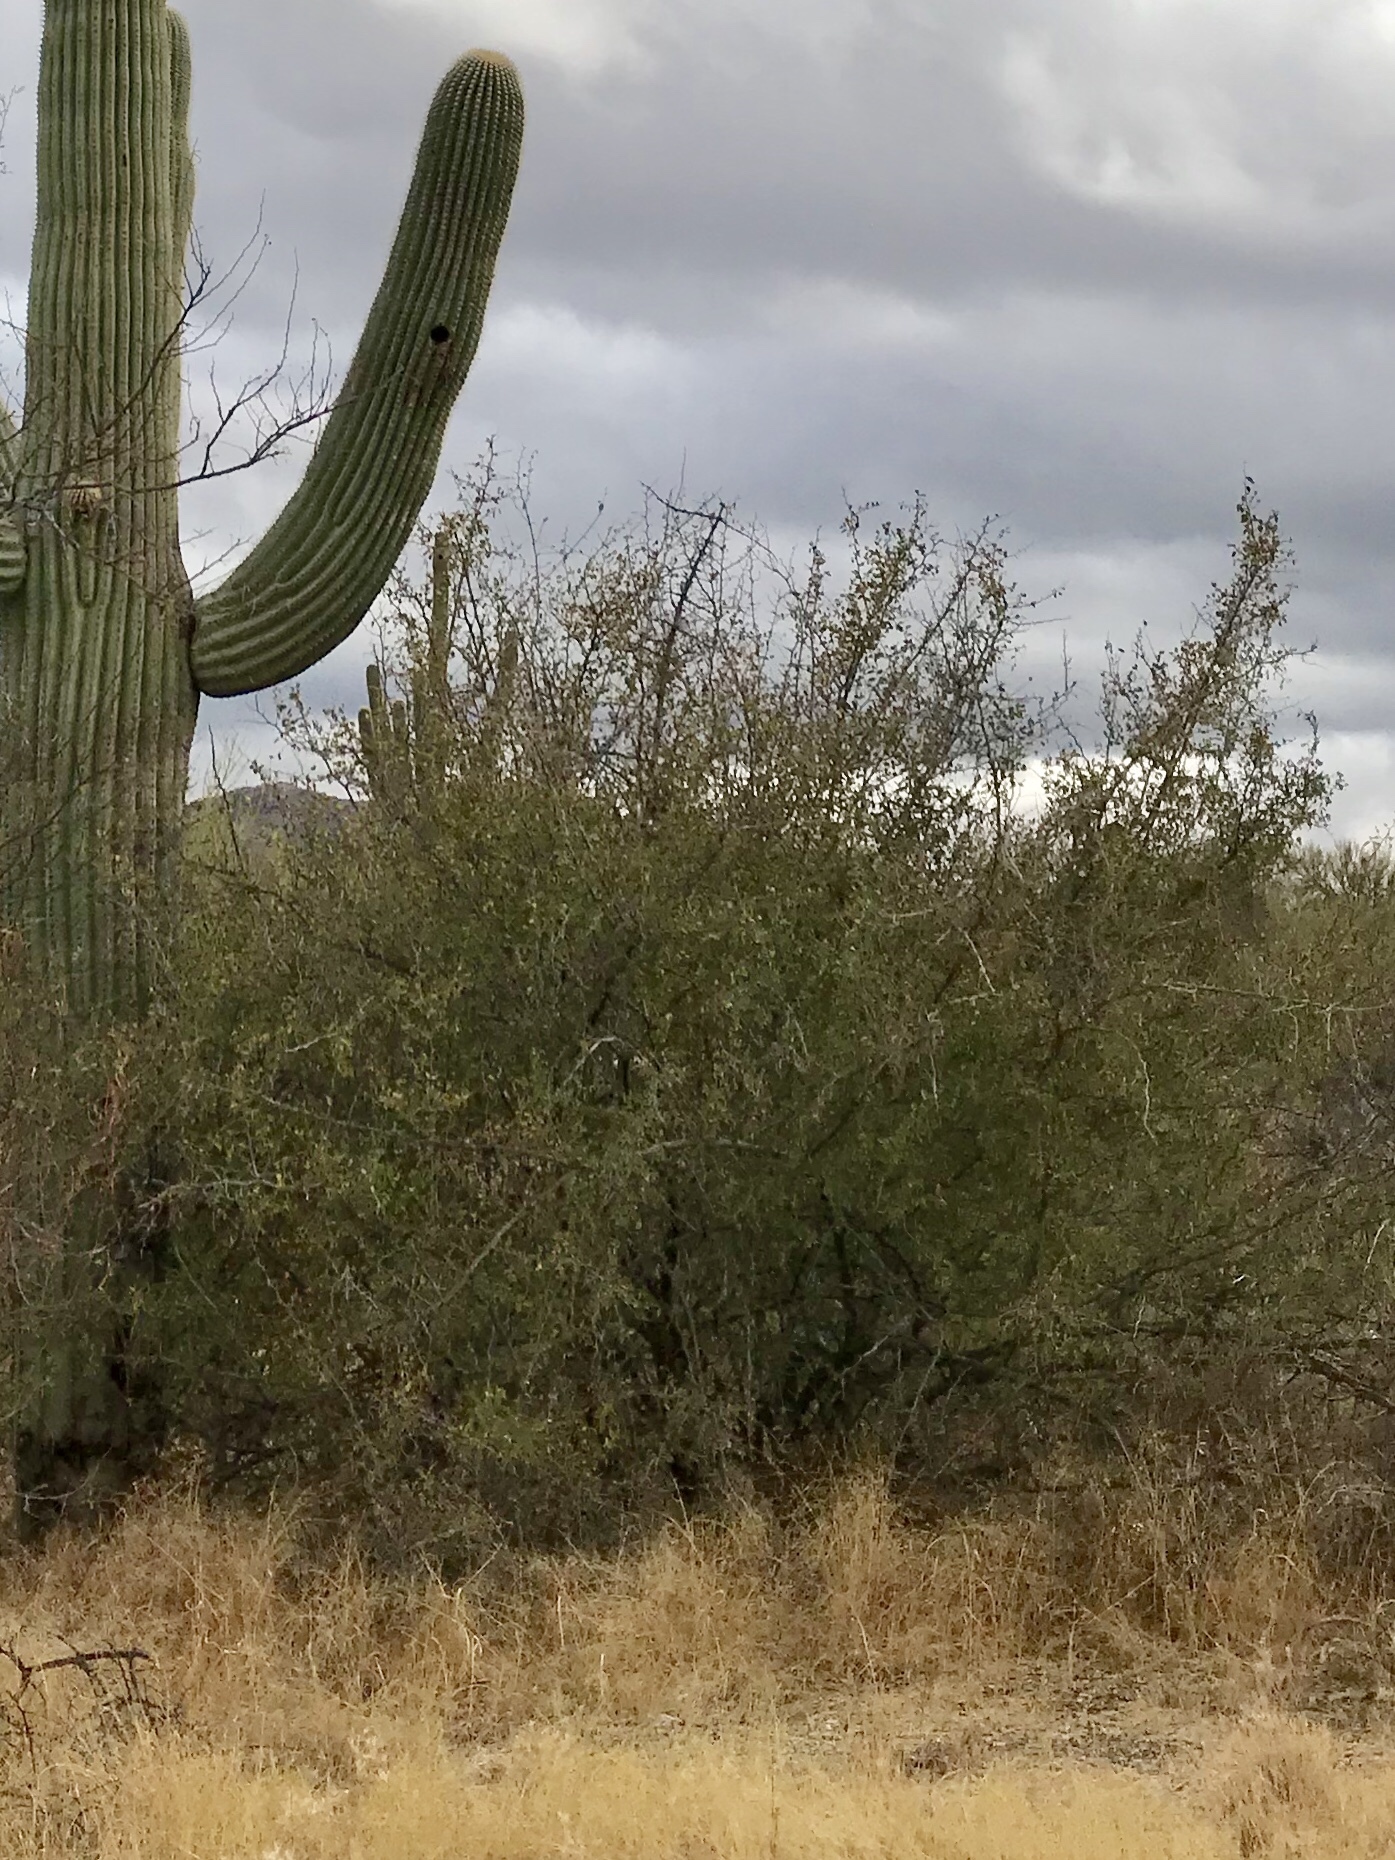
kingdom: Plantae
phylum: Tracheophyta
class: Magnoliopsida
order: Rosales
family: Cannabaceae
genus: Celtis
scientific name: Celtis pallida
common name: Desert hackberry
